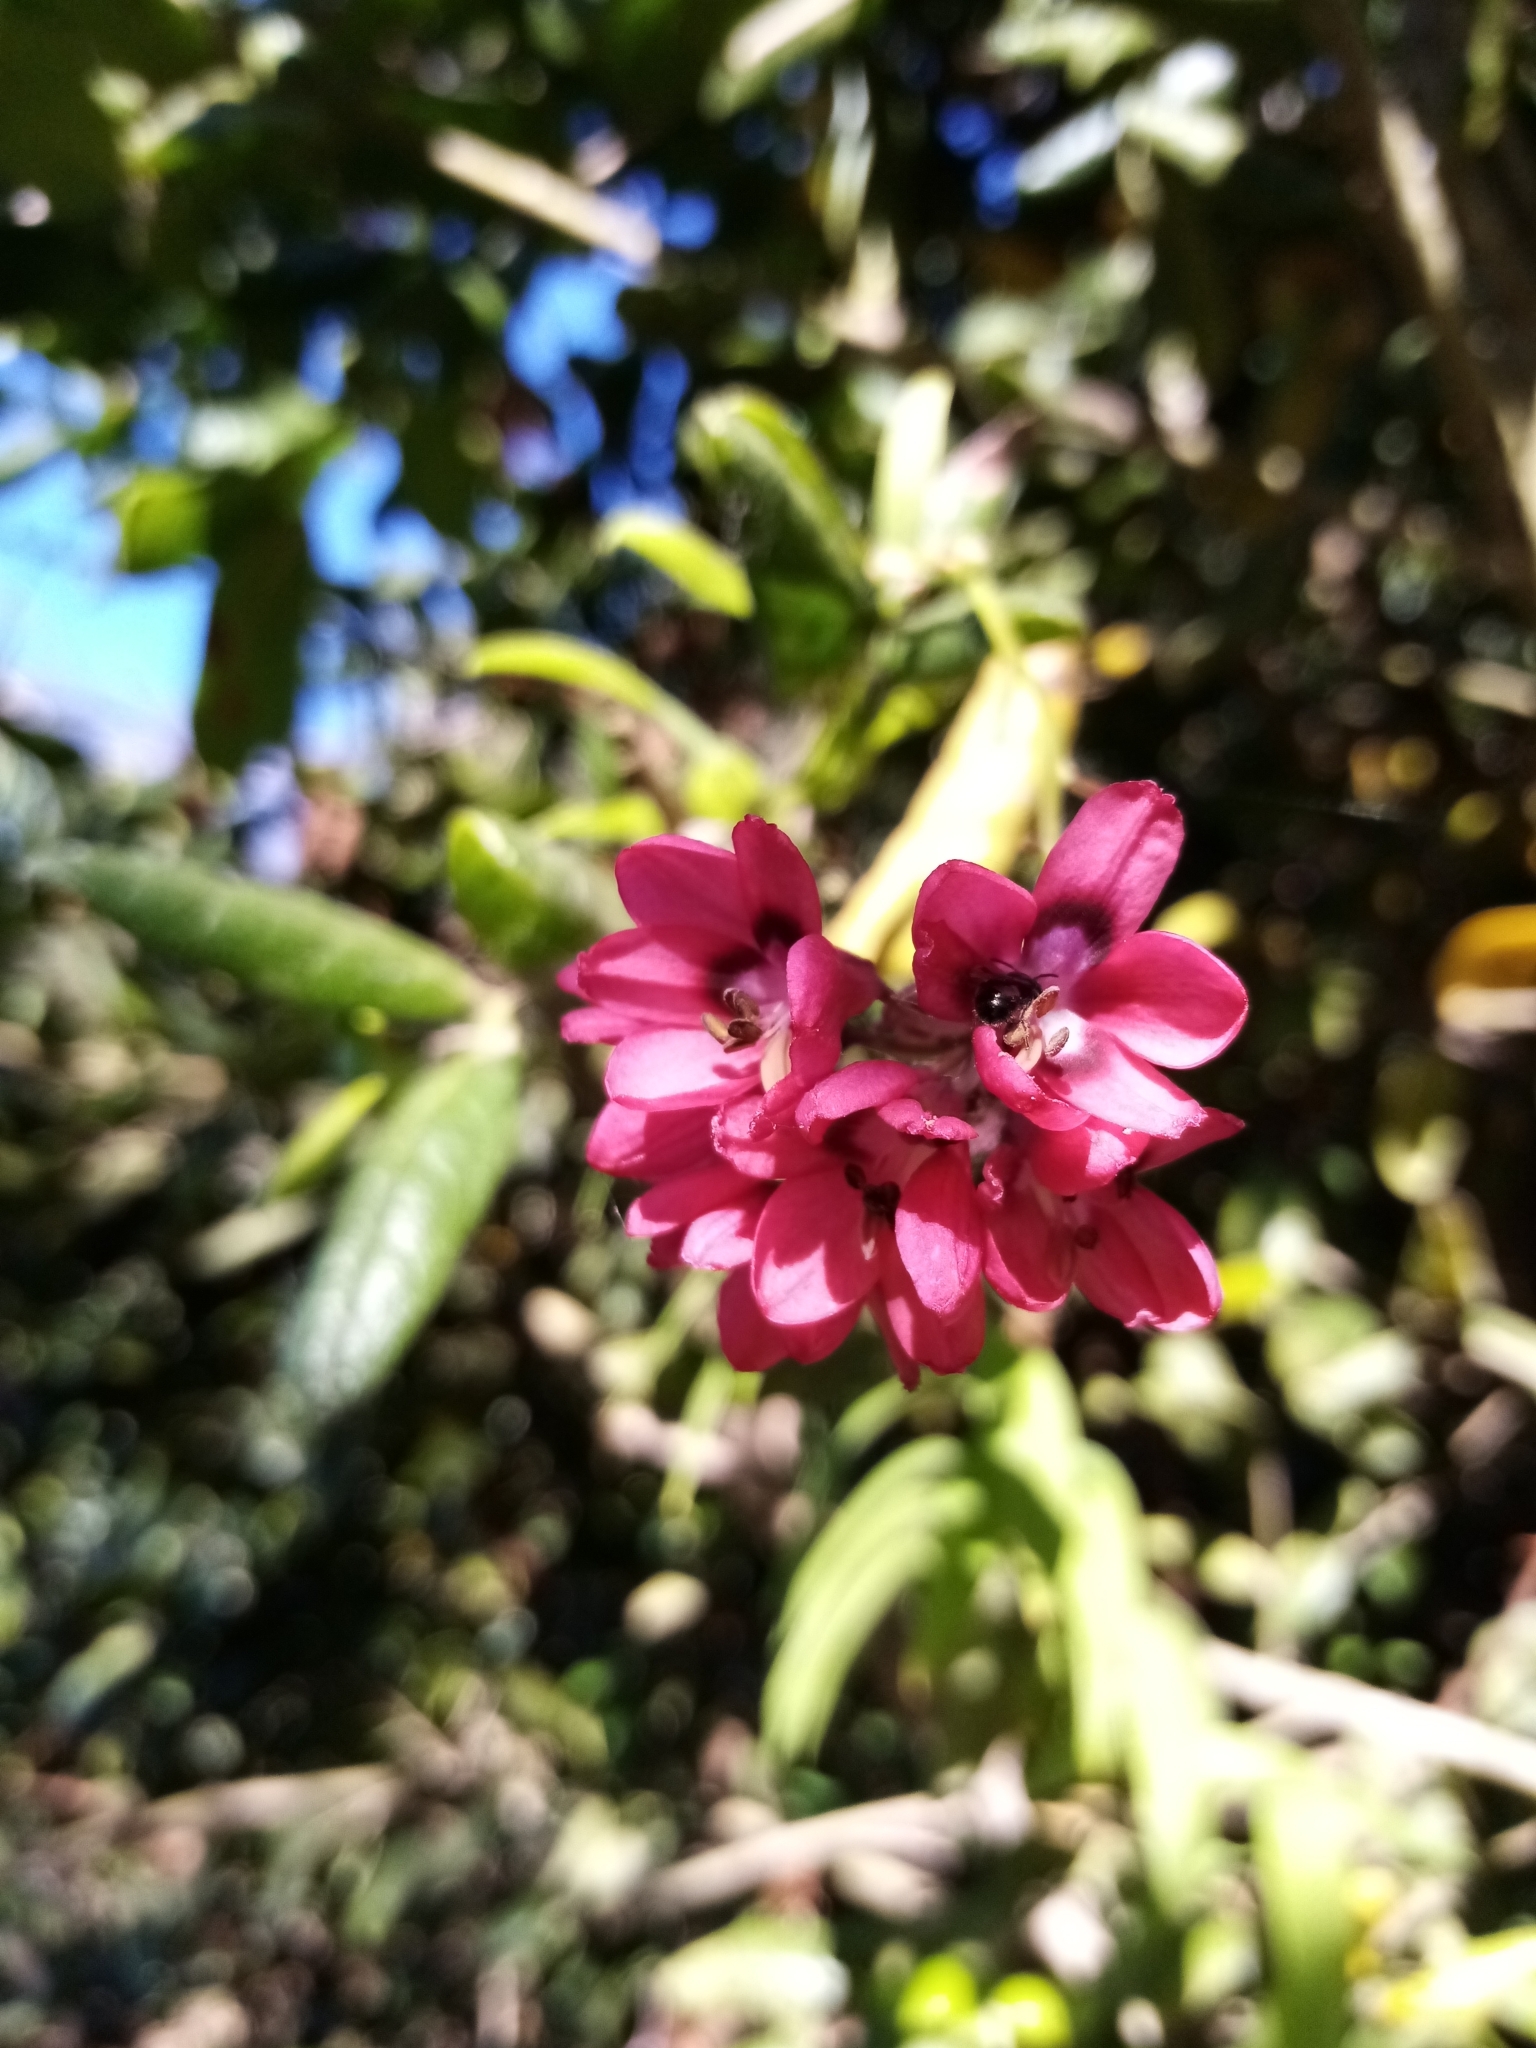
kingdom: Plantae
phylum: Tracheophyta
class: Liliopsida
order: Liliales
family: Alstroemeriaceae
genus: Bomarea
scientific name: Bomarea salsilla
